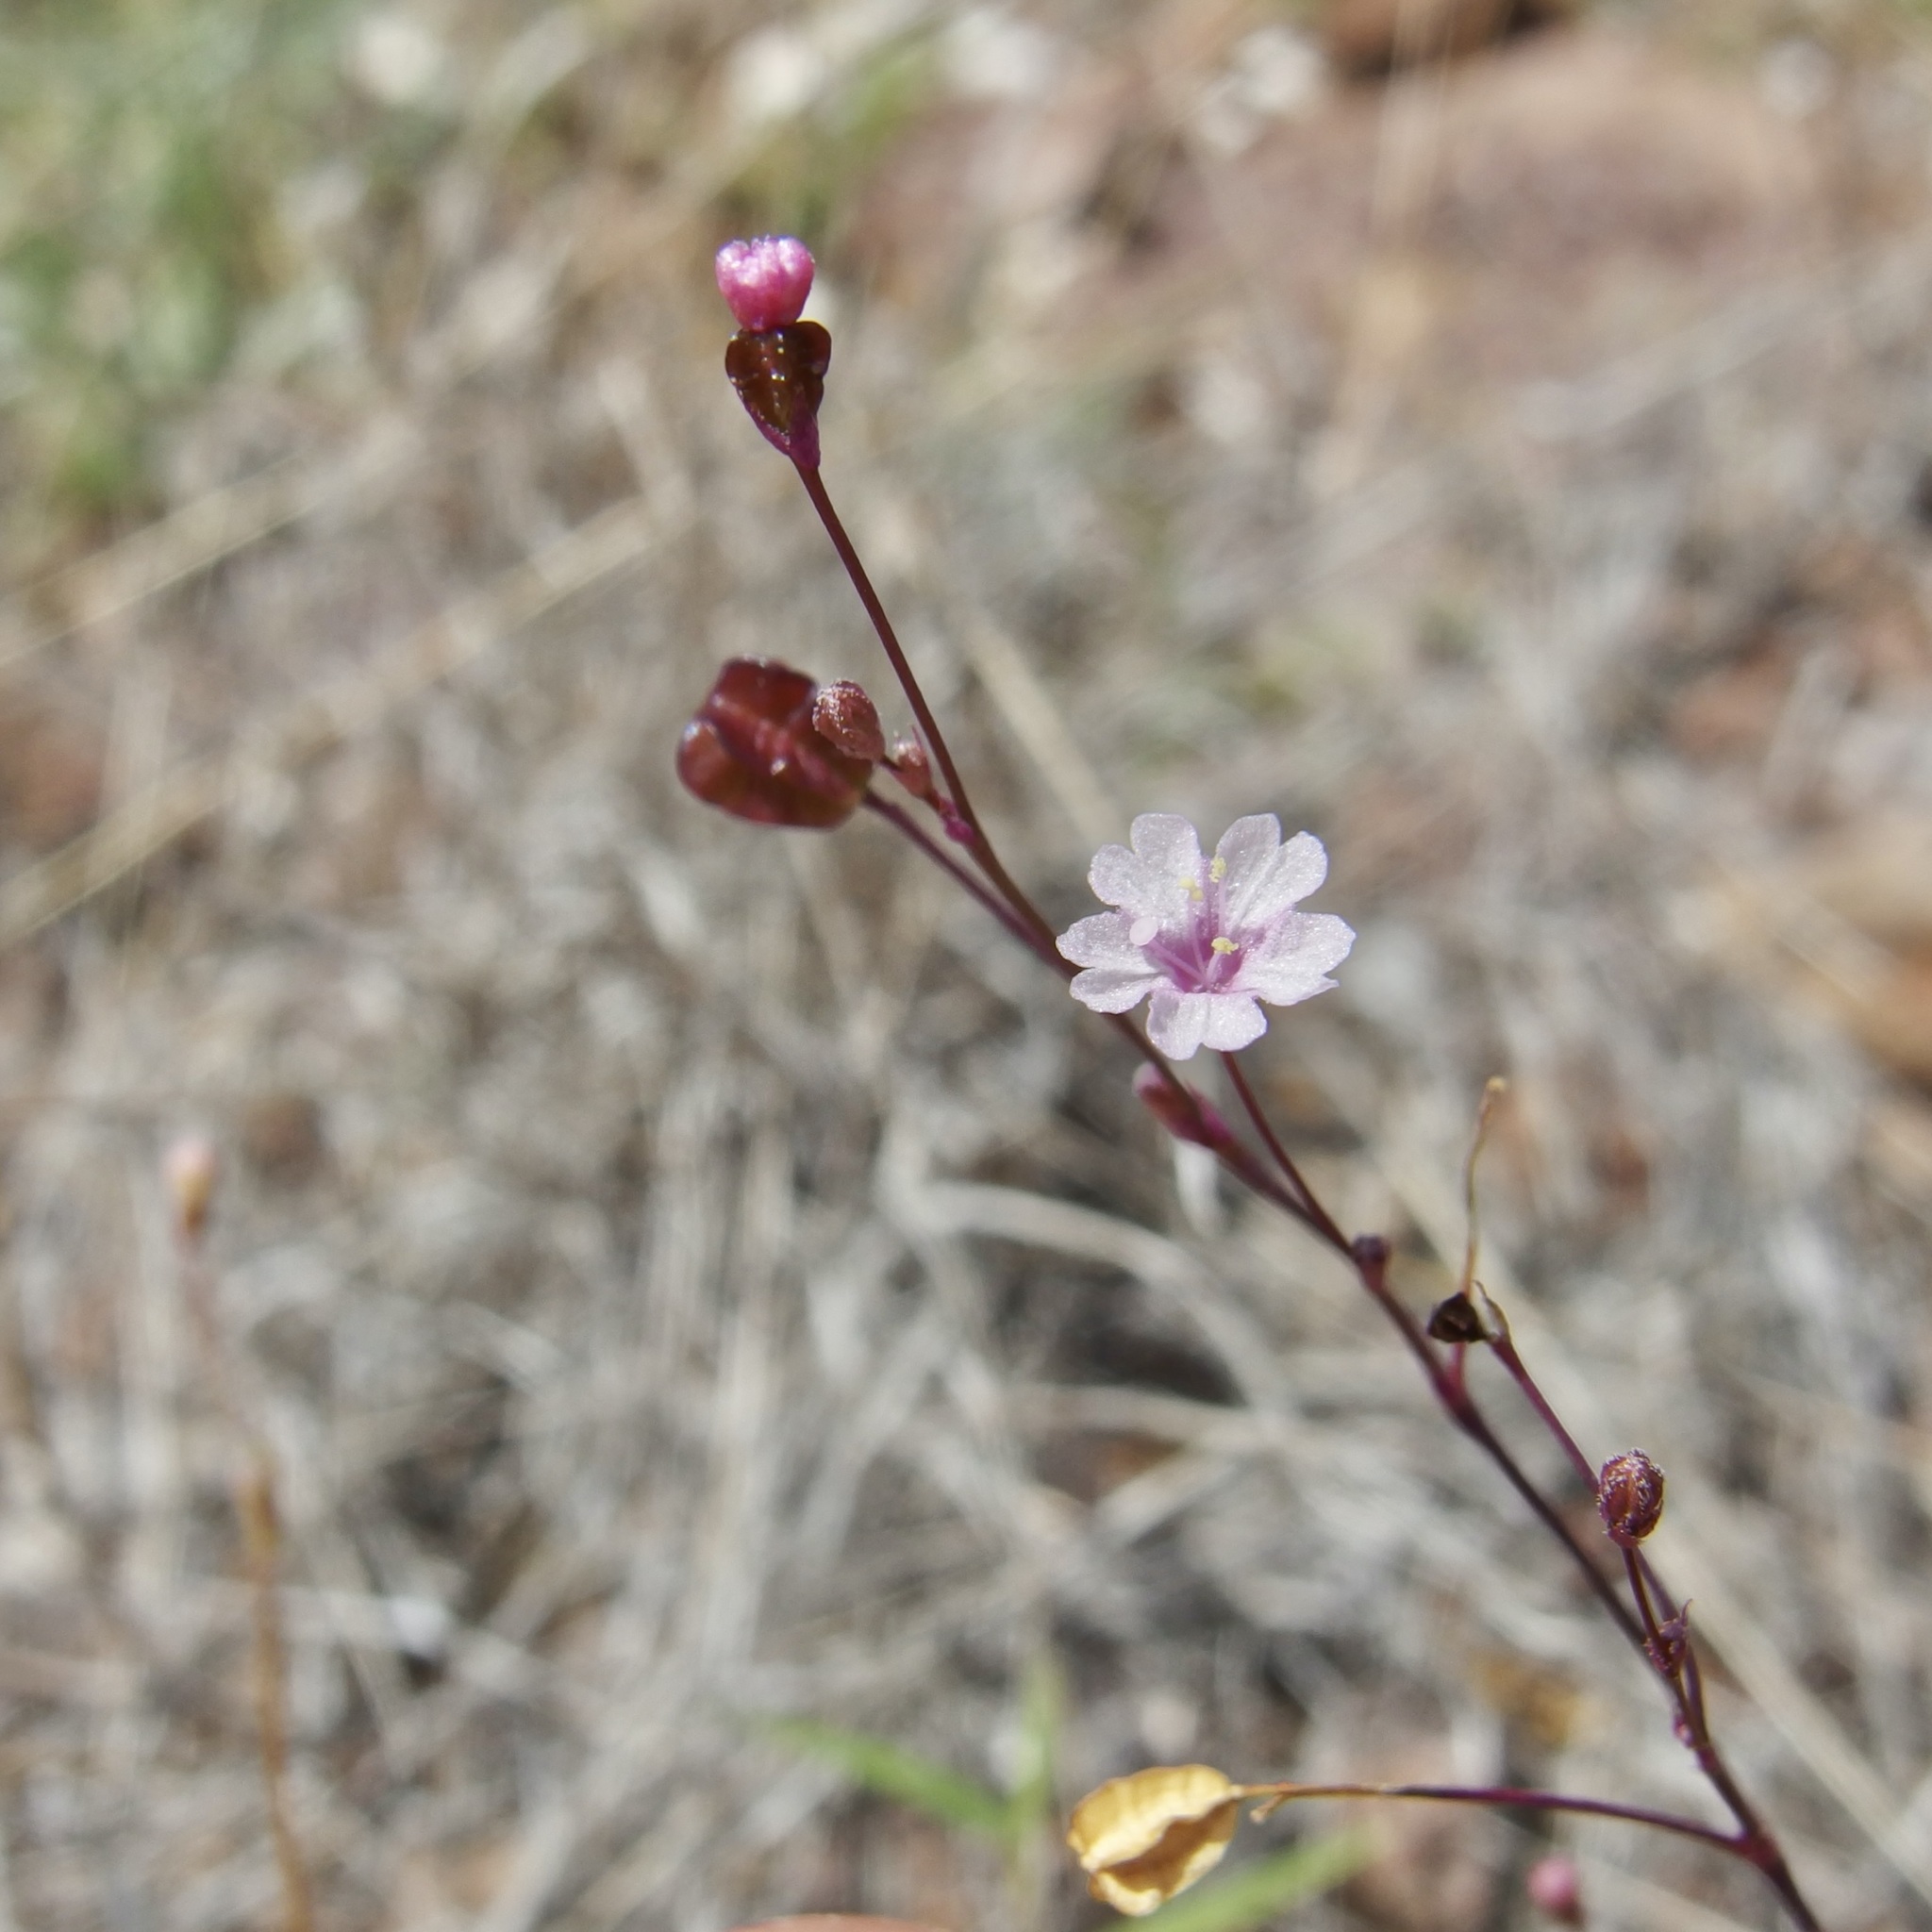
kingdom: Plantae
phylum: Tracheophyta
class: Magnoliopsida
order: Caryophyllales
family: Nyctaginaceae
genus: Boerhavia
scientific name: Boerhavia alata
